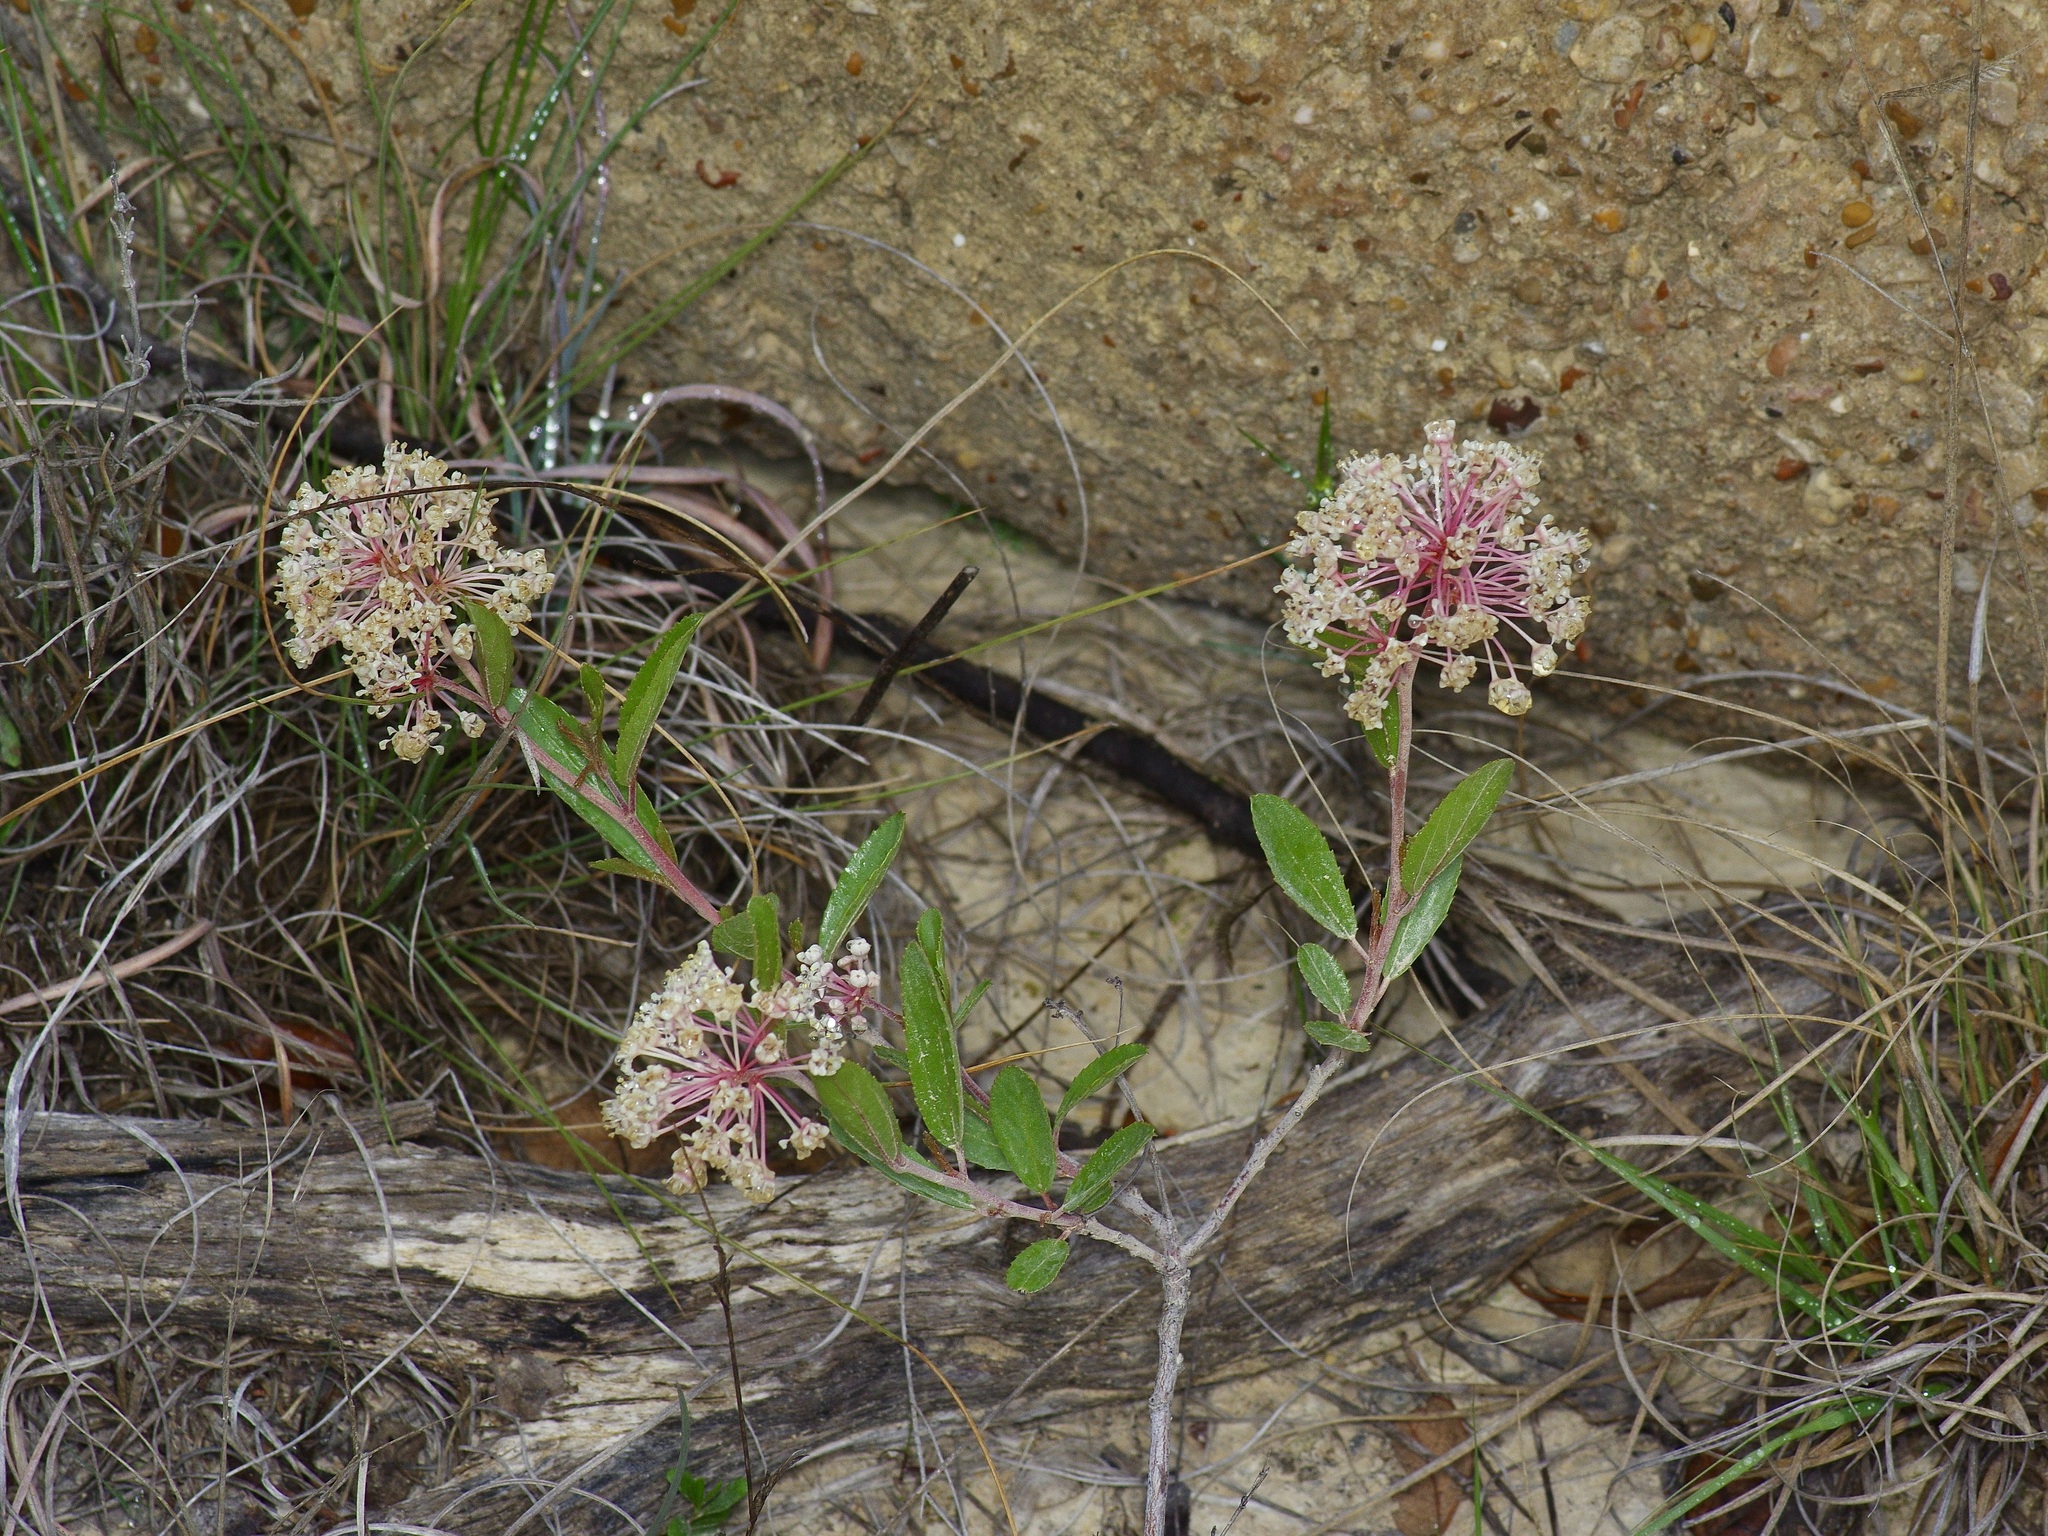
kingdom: Plantae
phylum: Tracheophyta
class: Magnoliopsida
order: Rosales
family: Rhamnaceae
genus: Ceanothus
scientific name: Ceanothus herbaceus
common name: Inland ceanothus
